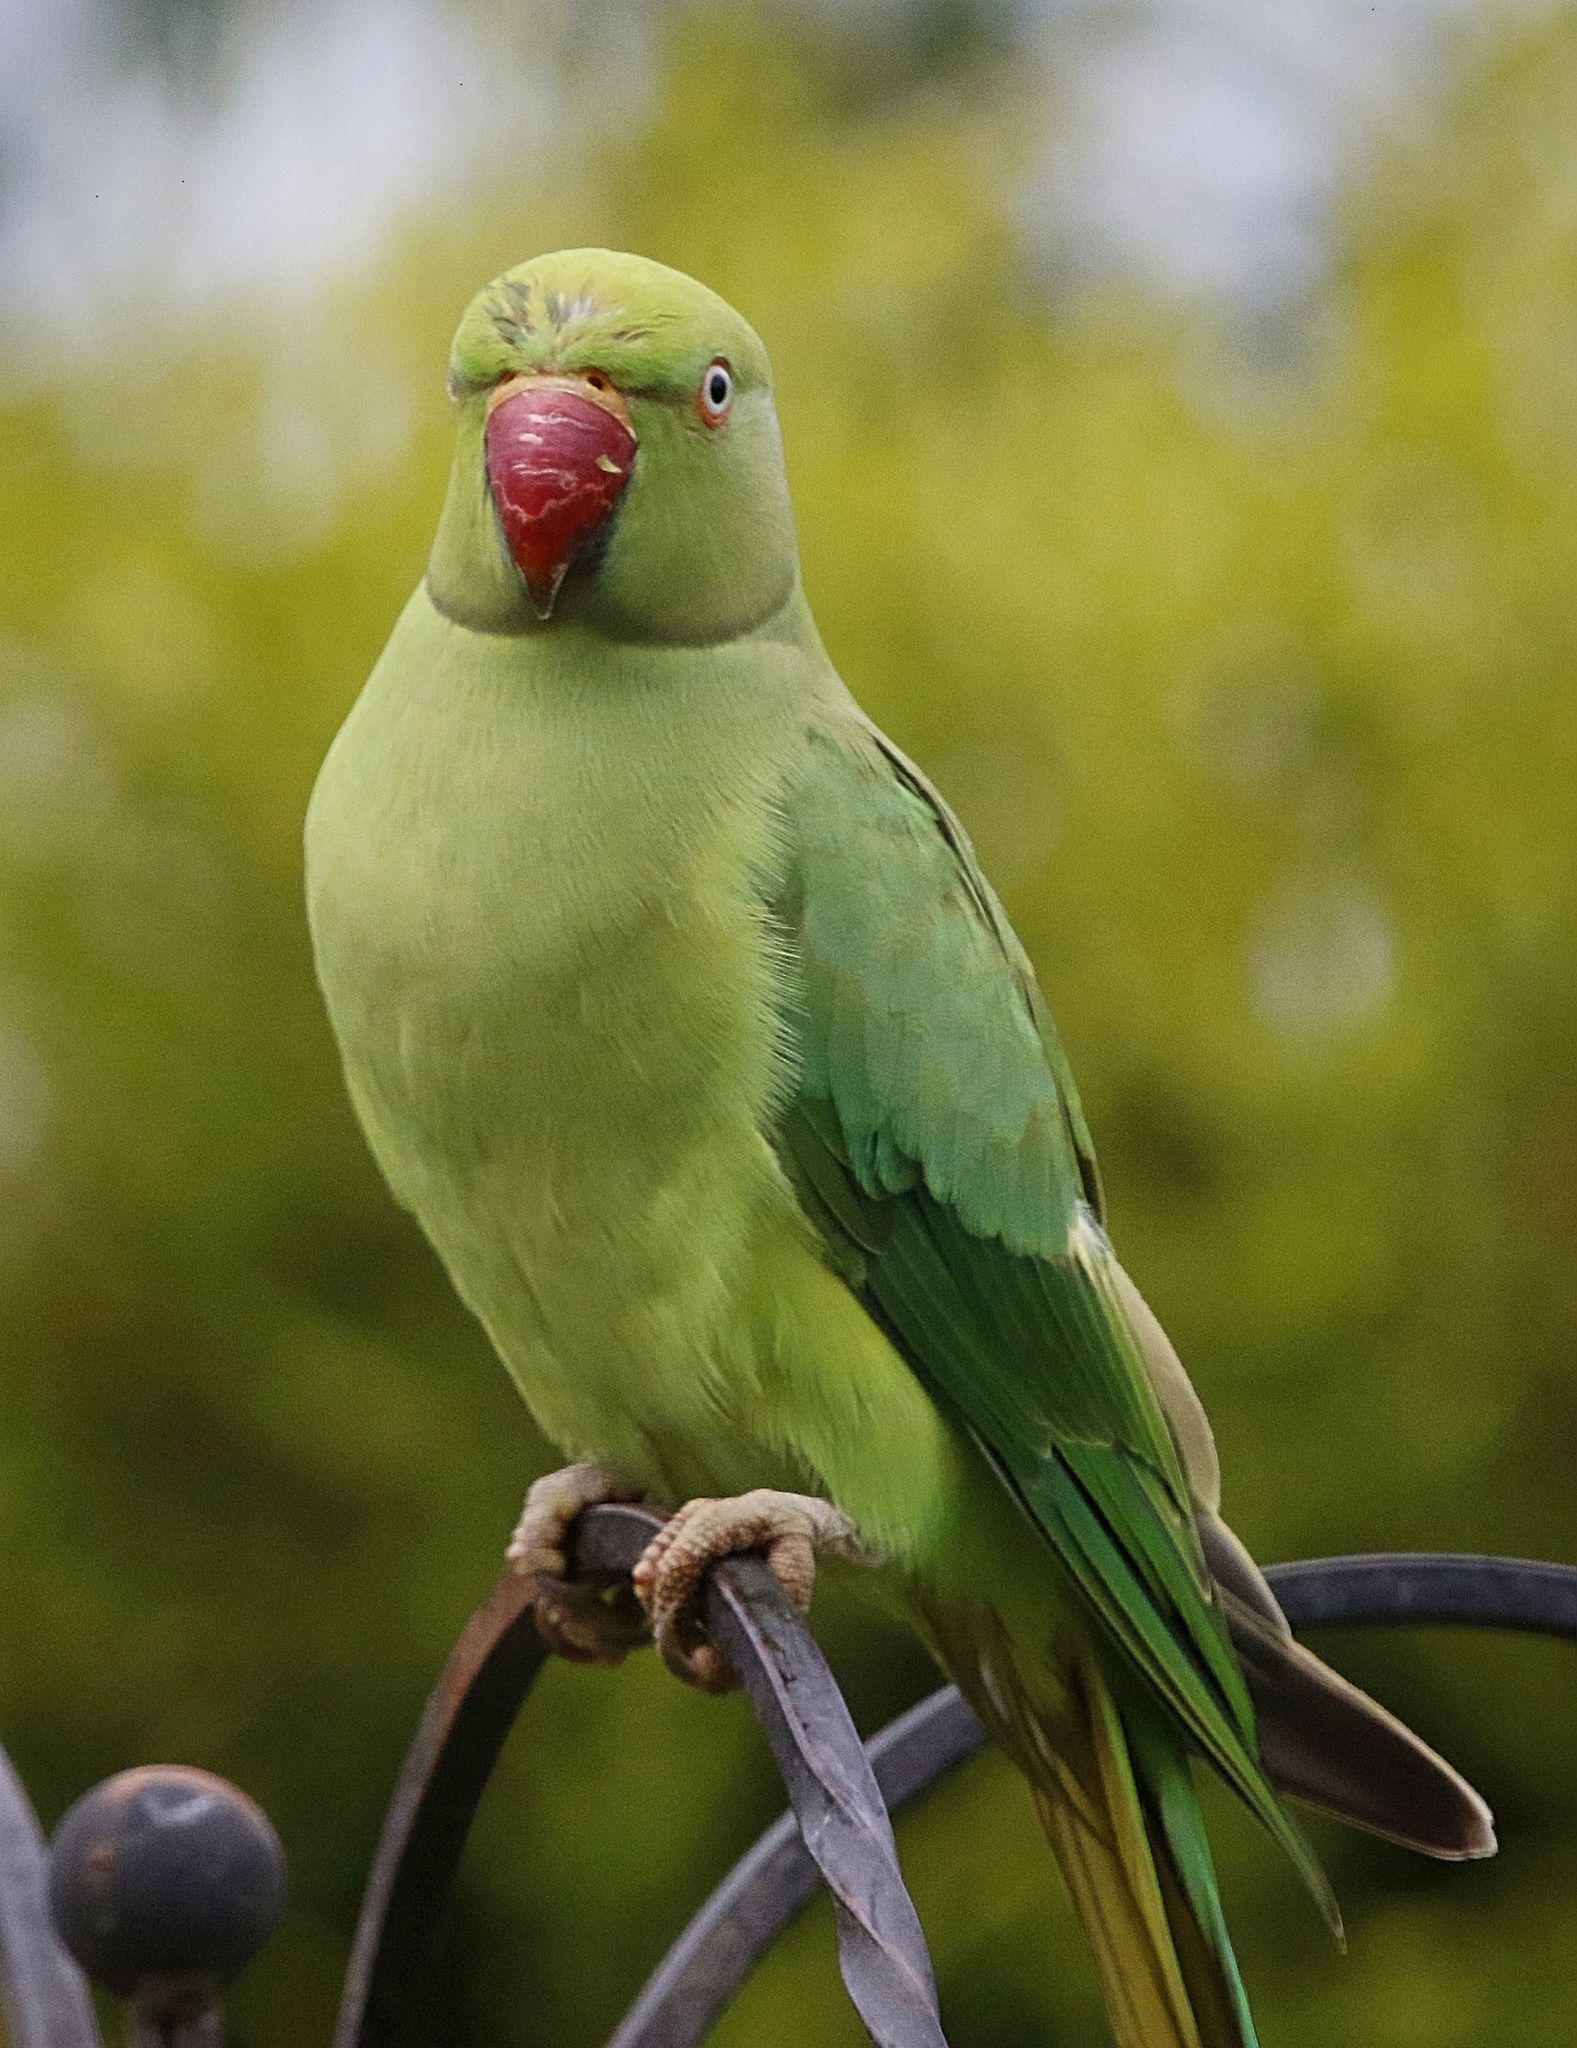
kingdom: Animalia
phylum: Chordata
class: Aves
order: Psittaciformes
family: Psittacidae
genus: Psittacula
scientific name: Psittacula krameri
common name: Rose-ringed parakeet
